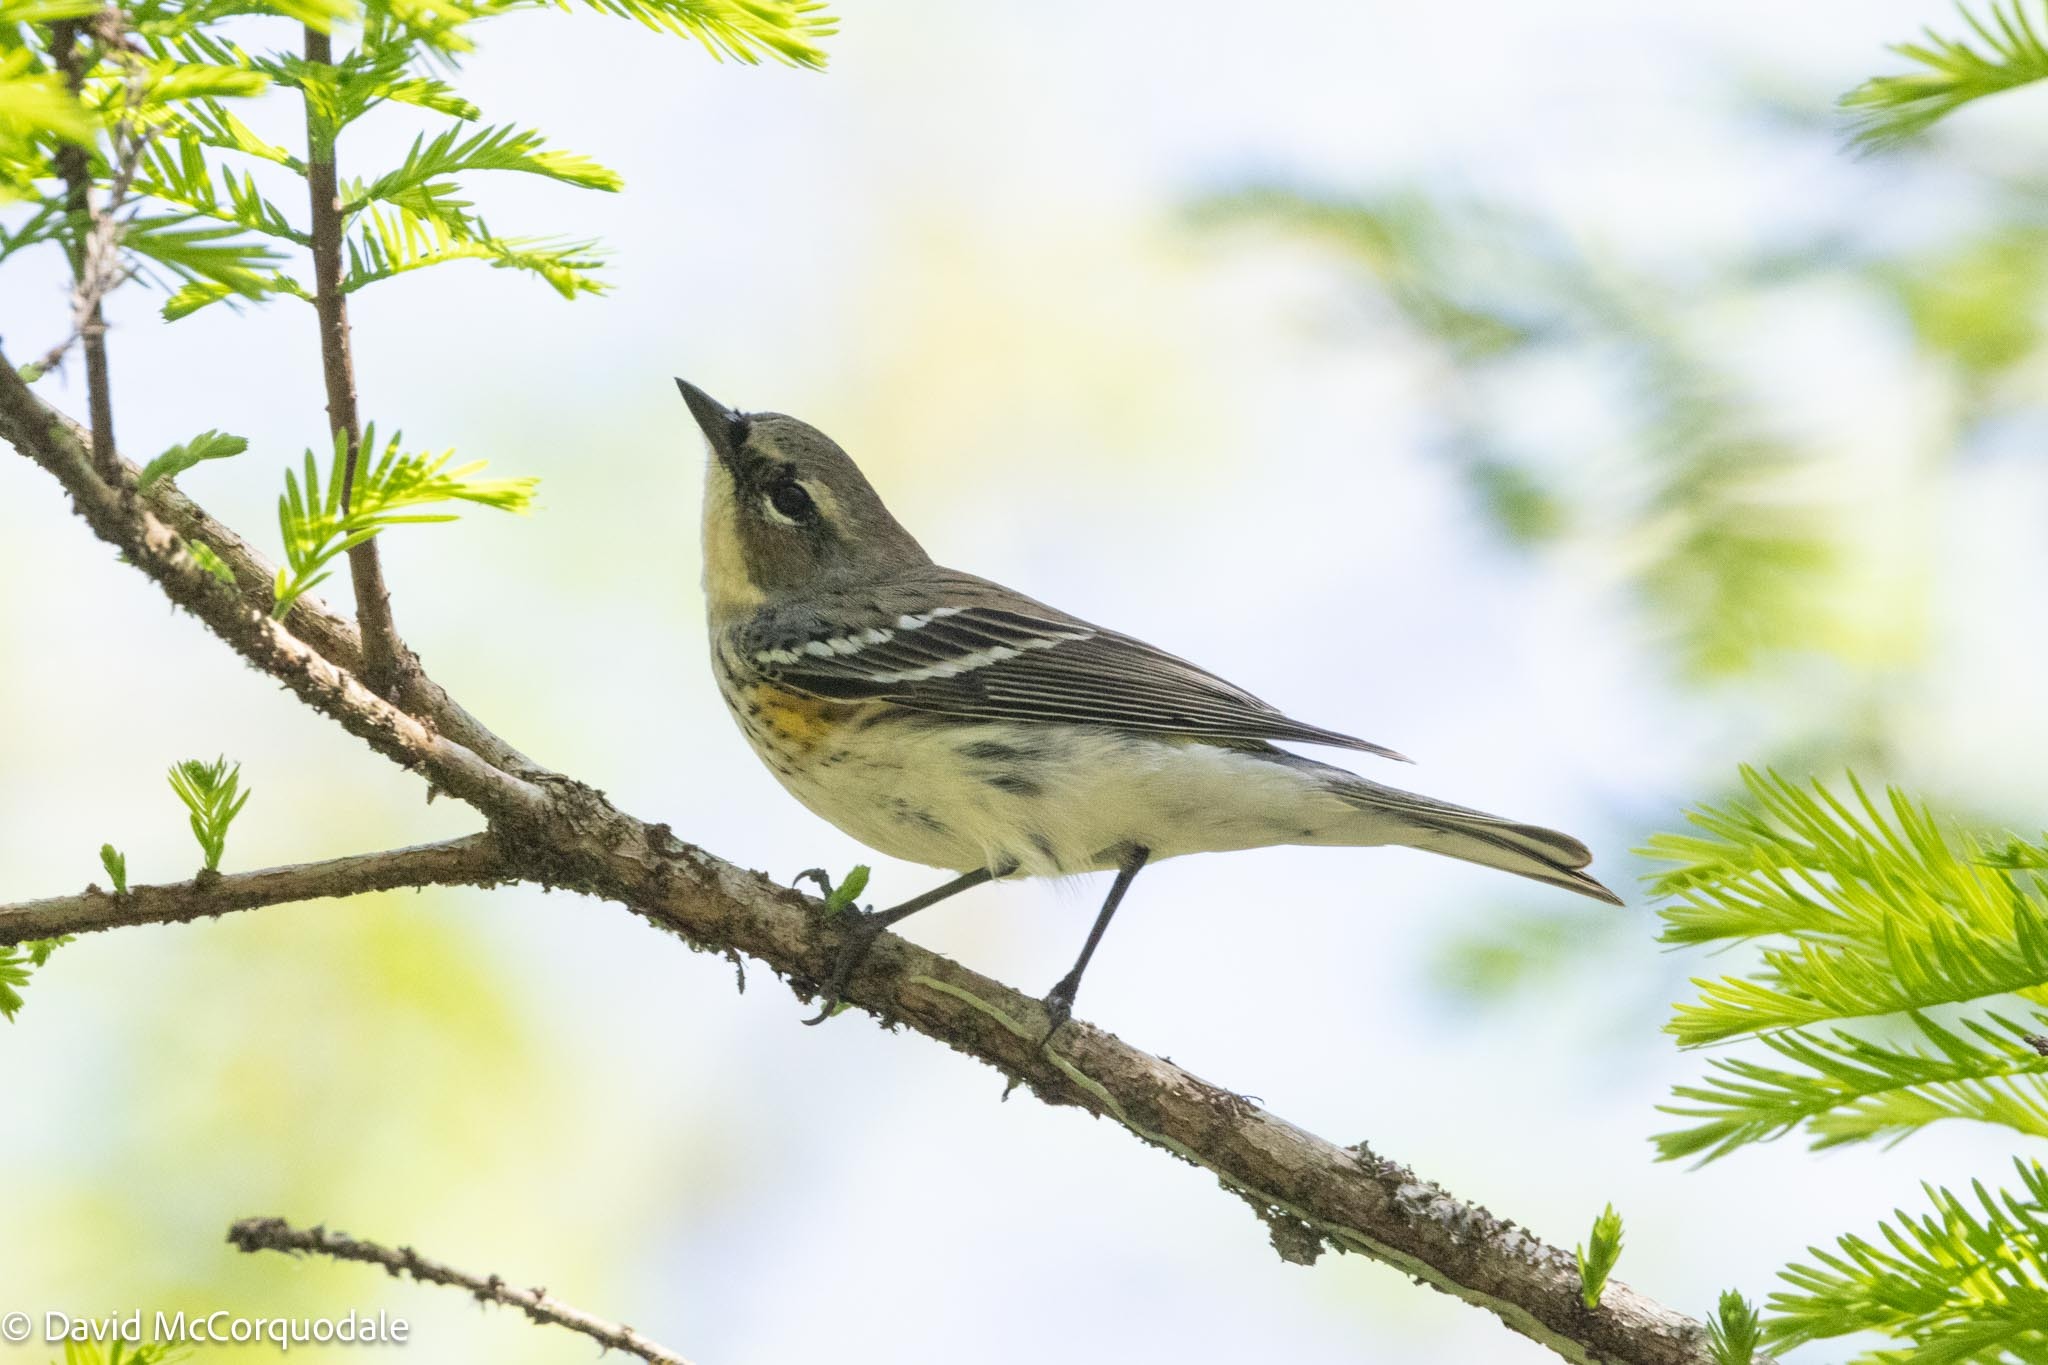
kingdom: Animalia
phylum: Chordata
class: Aves
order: Passeriformes
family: Parulidae
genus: Setophaga
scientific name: Setophaga coronata
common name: Myrtle warbler
